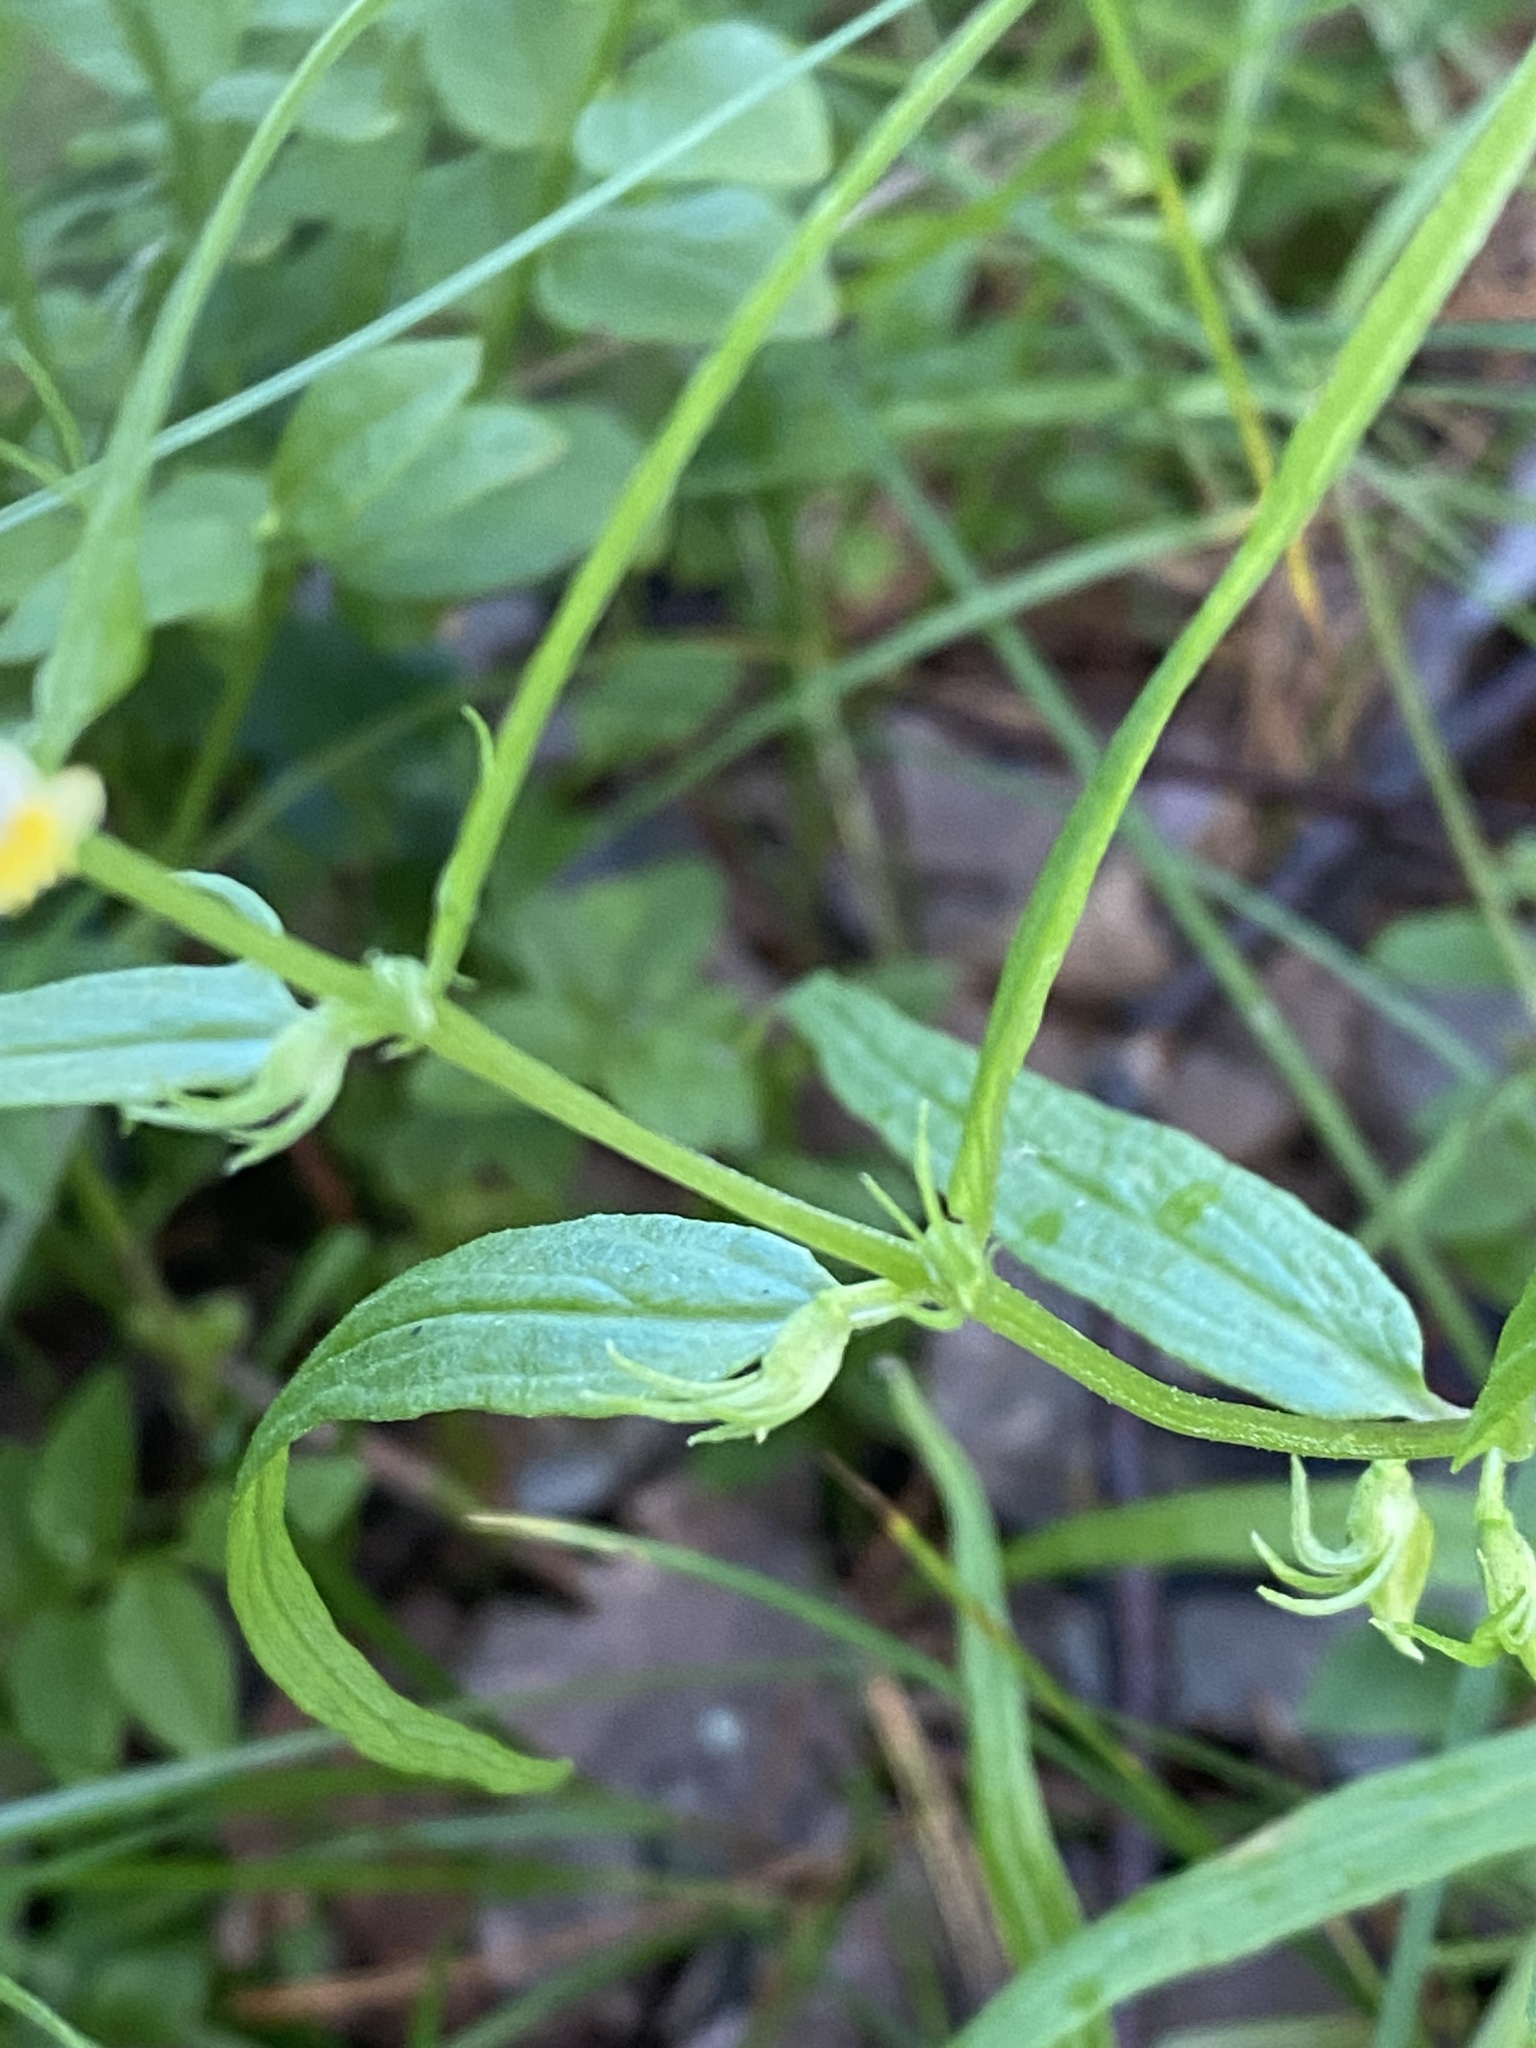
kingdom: Plantae
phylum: Tracheophyta
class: Magnoliopsida
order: Lamiales
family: Orobanchaceae
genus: Melampyrum
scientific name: Melampyrum pratense
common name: Common cow-wheat
